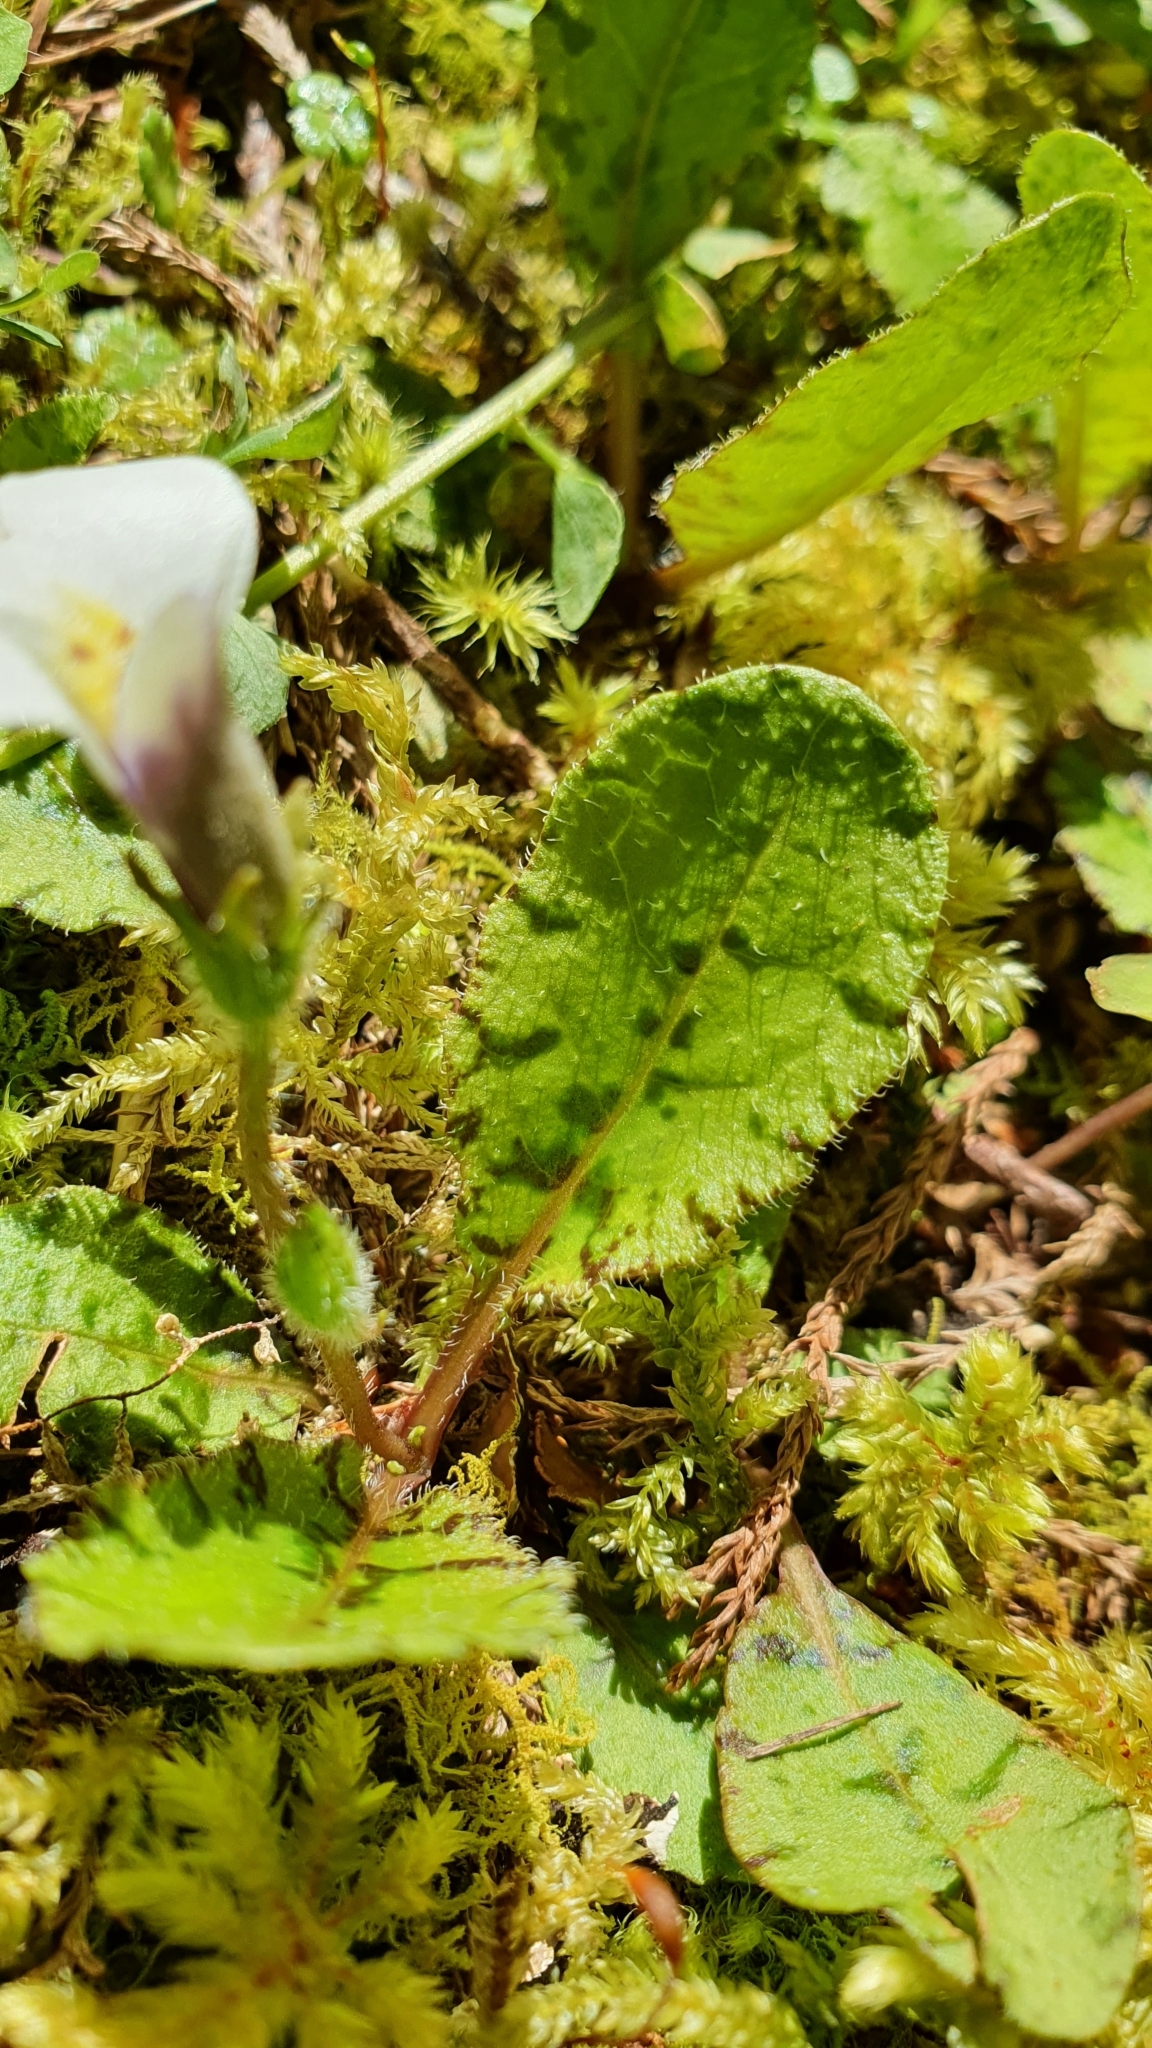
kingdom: Plantae
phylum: Tracheophyta
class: Magnoliopsida
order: Lamiales
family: Mazaceae
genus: Mazus
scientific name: Mazus radicans
